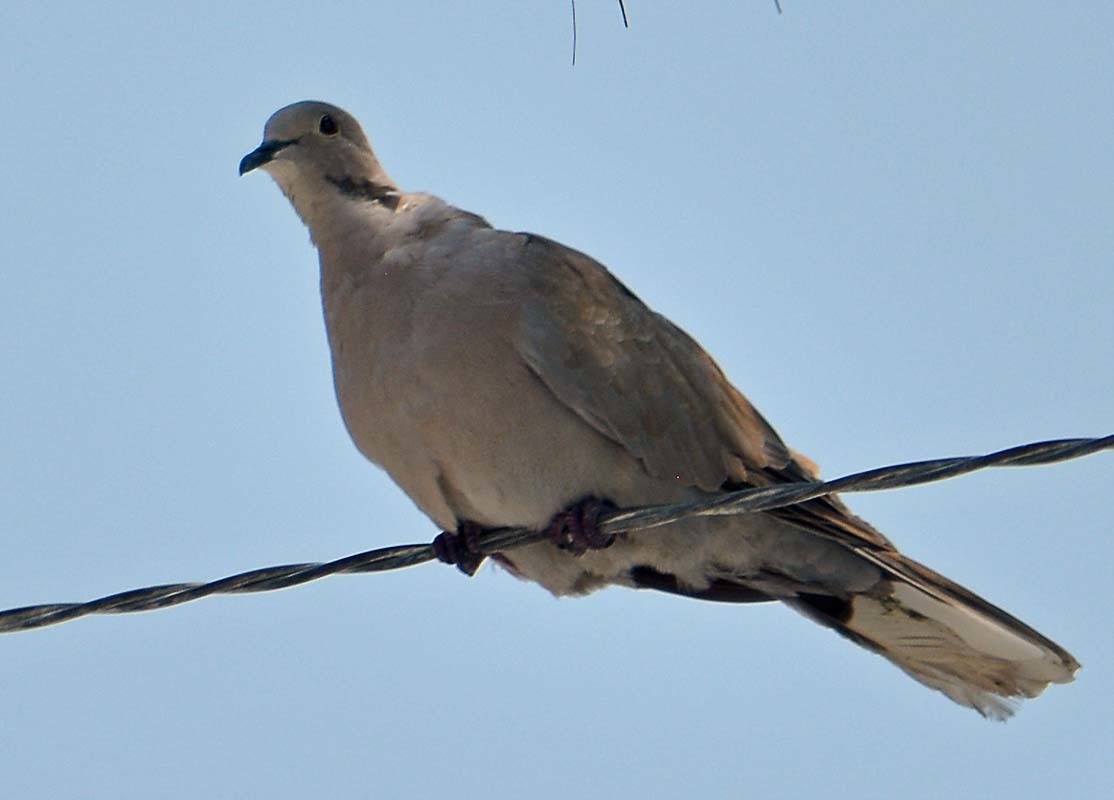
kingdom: Animalia
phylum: Chordata
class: Aves
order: Columbiformes
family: Columbidae
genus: Streptopelia
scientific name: Streptopelia decaocto
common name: Eurasian collared dove
